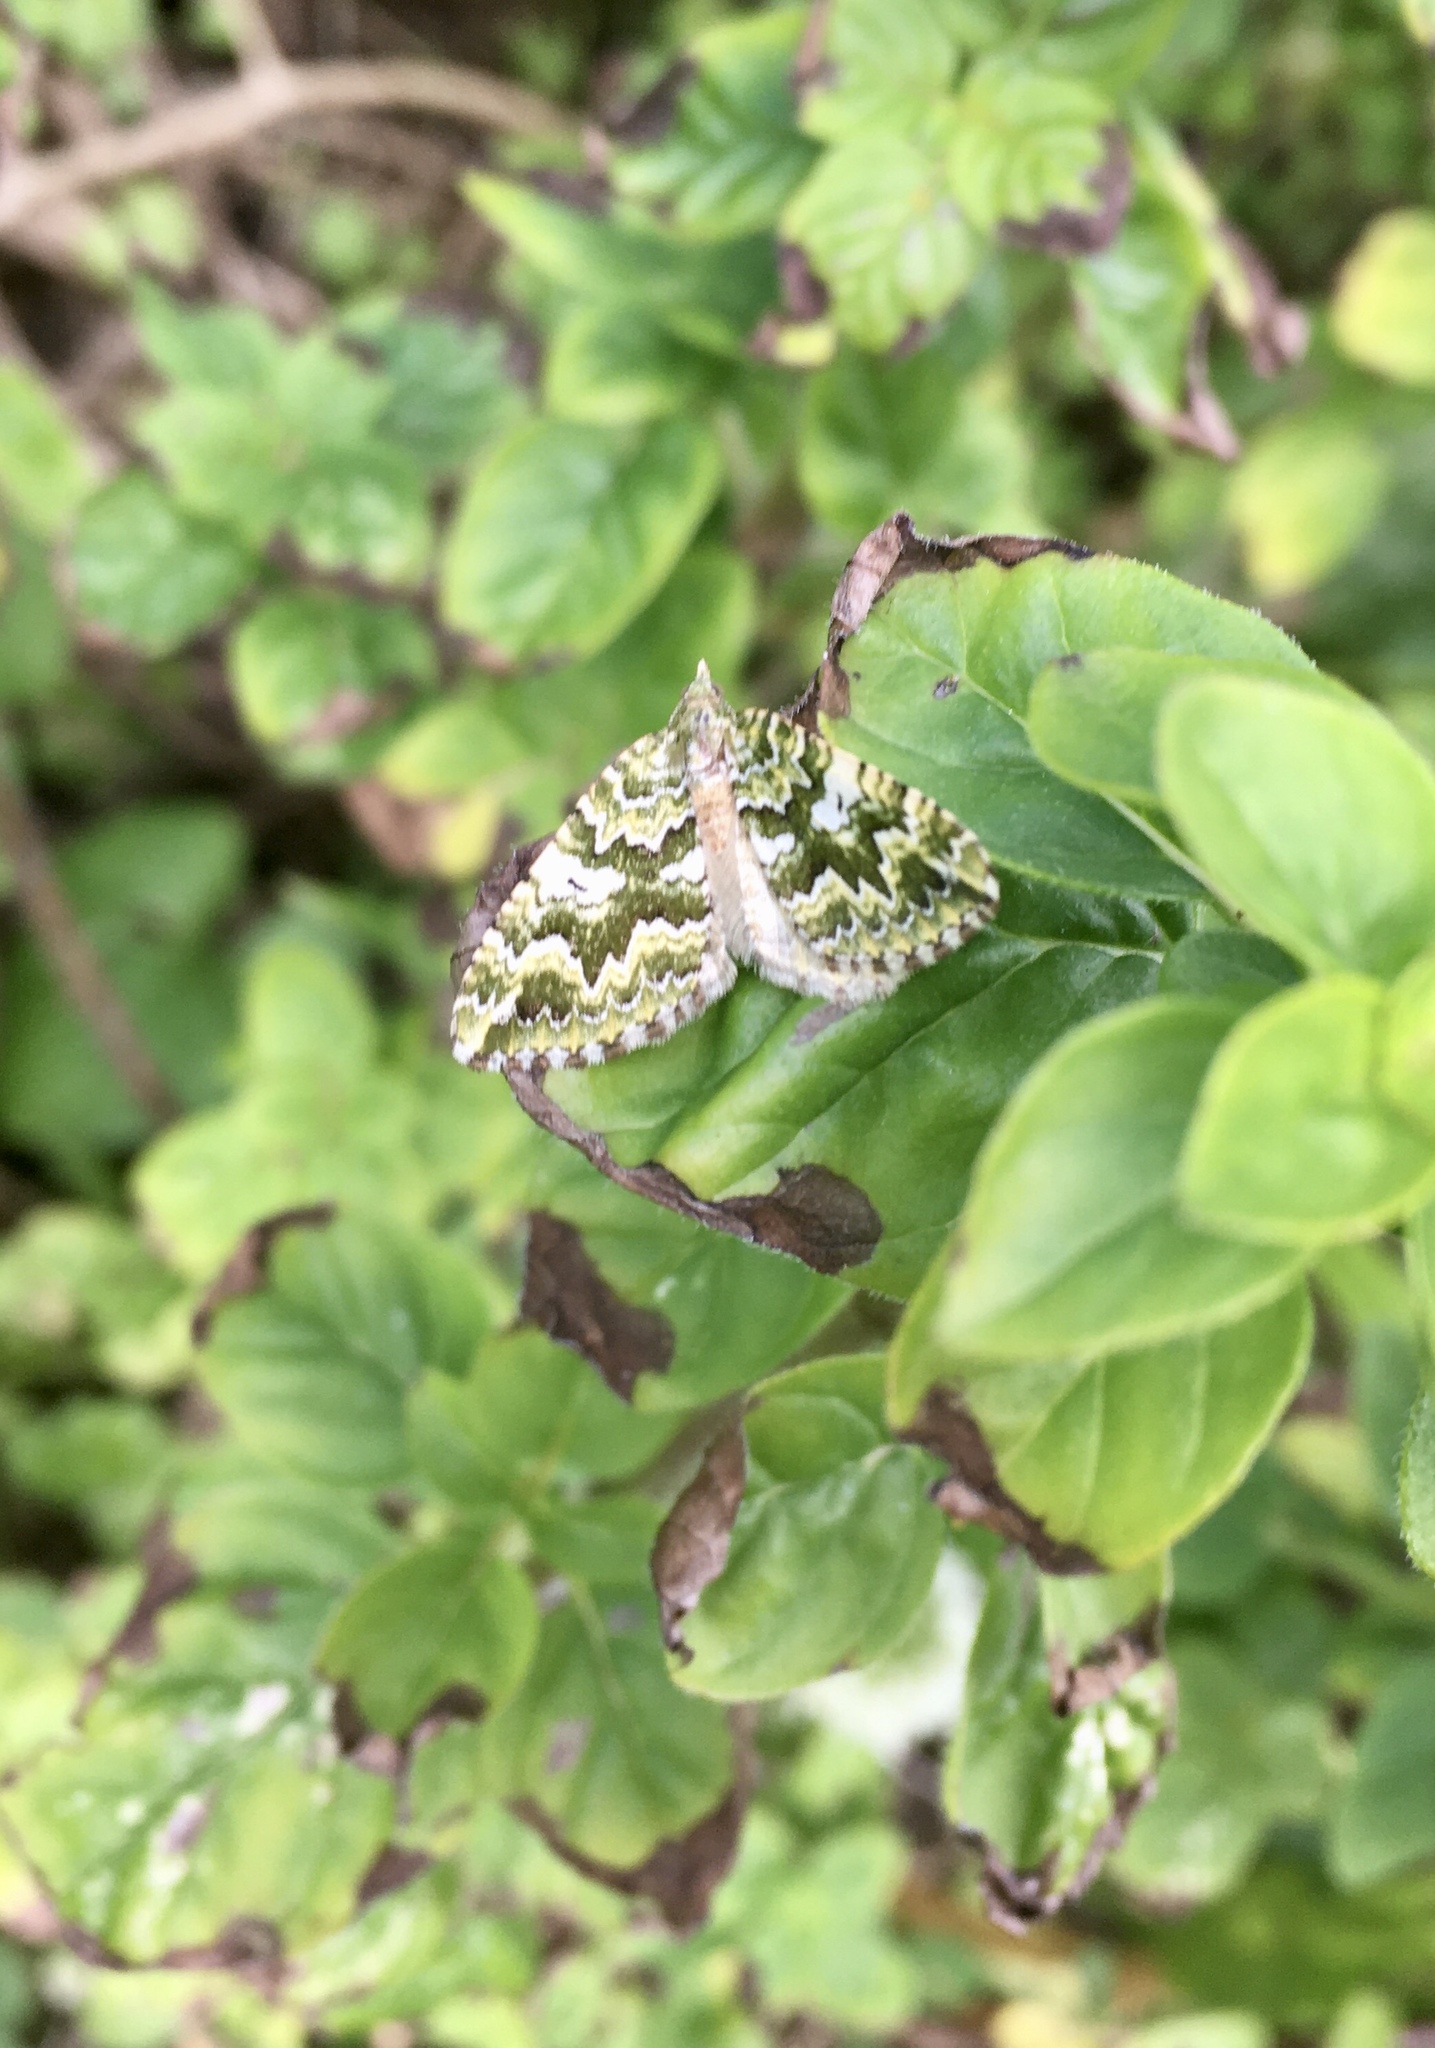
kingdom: Animalia
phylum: Arthropoda
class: Insecta
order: Lepidoptera
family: Geometridae
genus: Asaphodes
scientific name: Asaphodes beata
